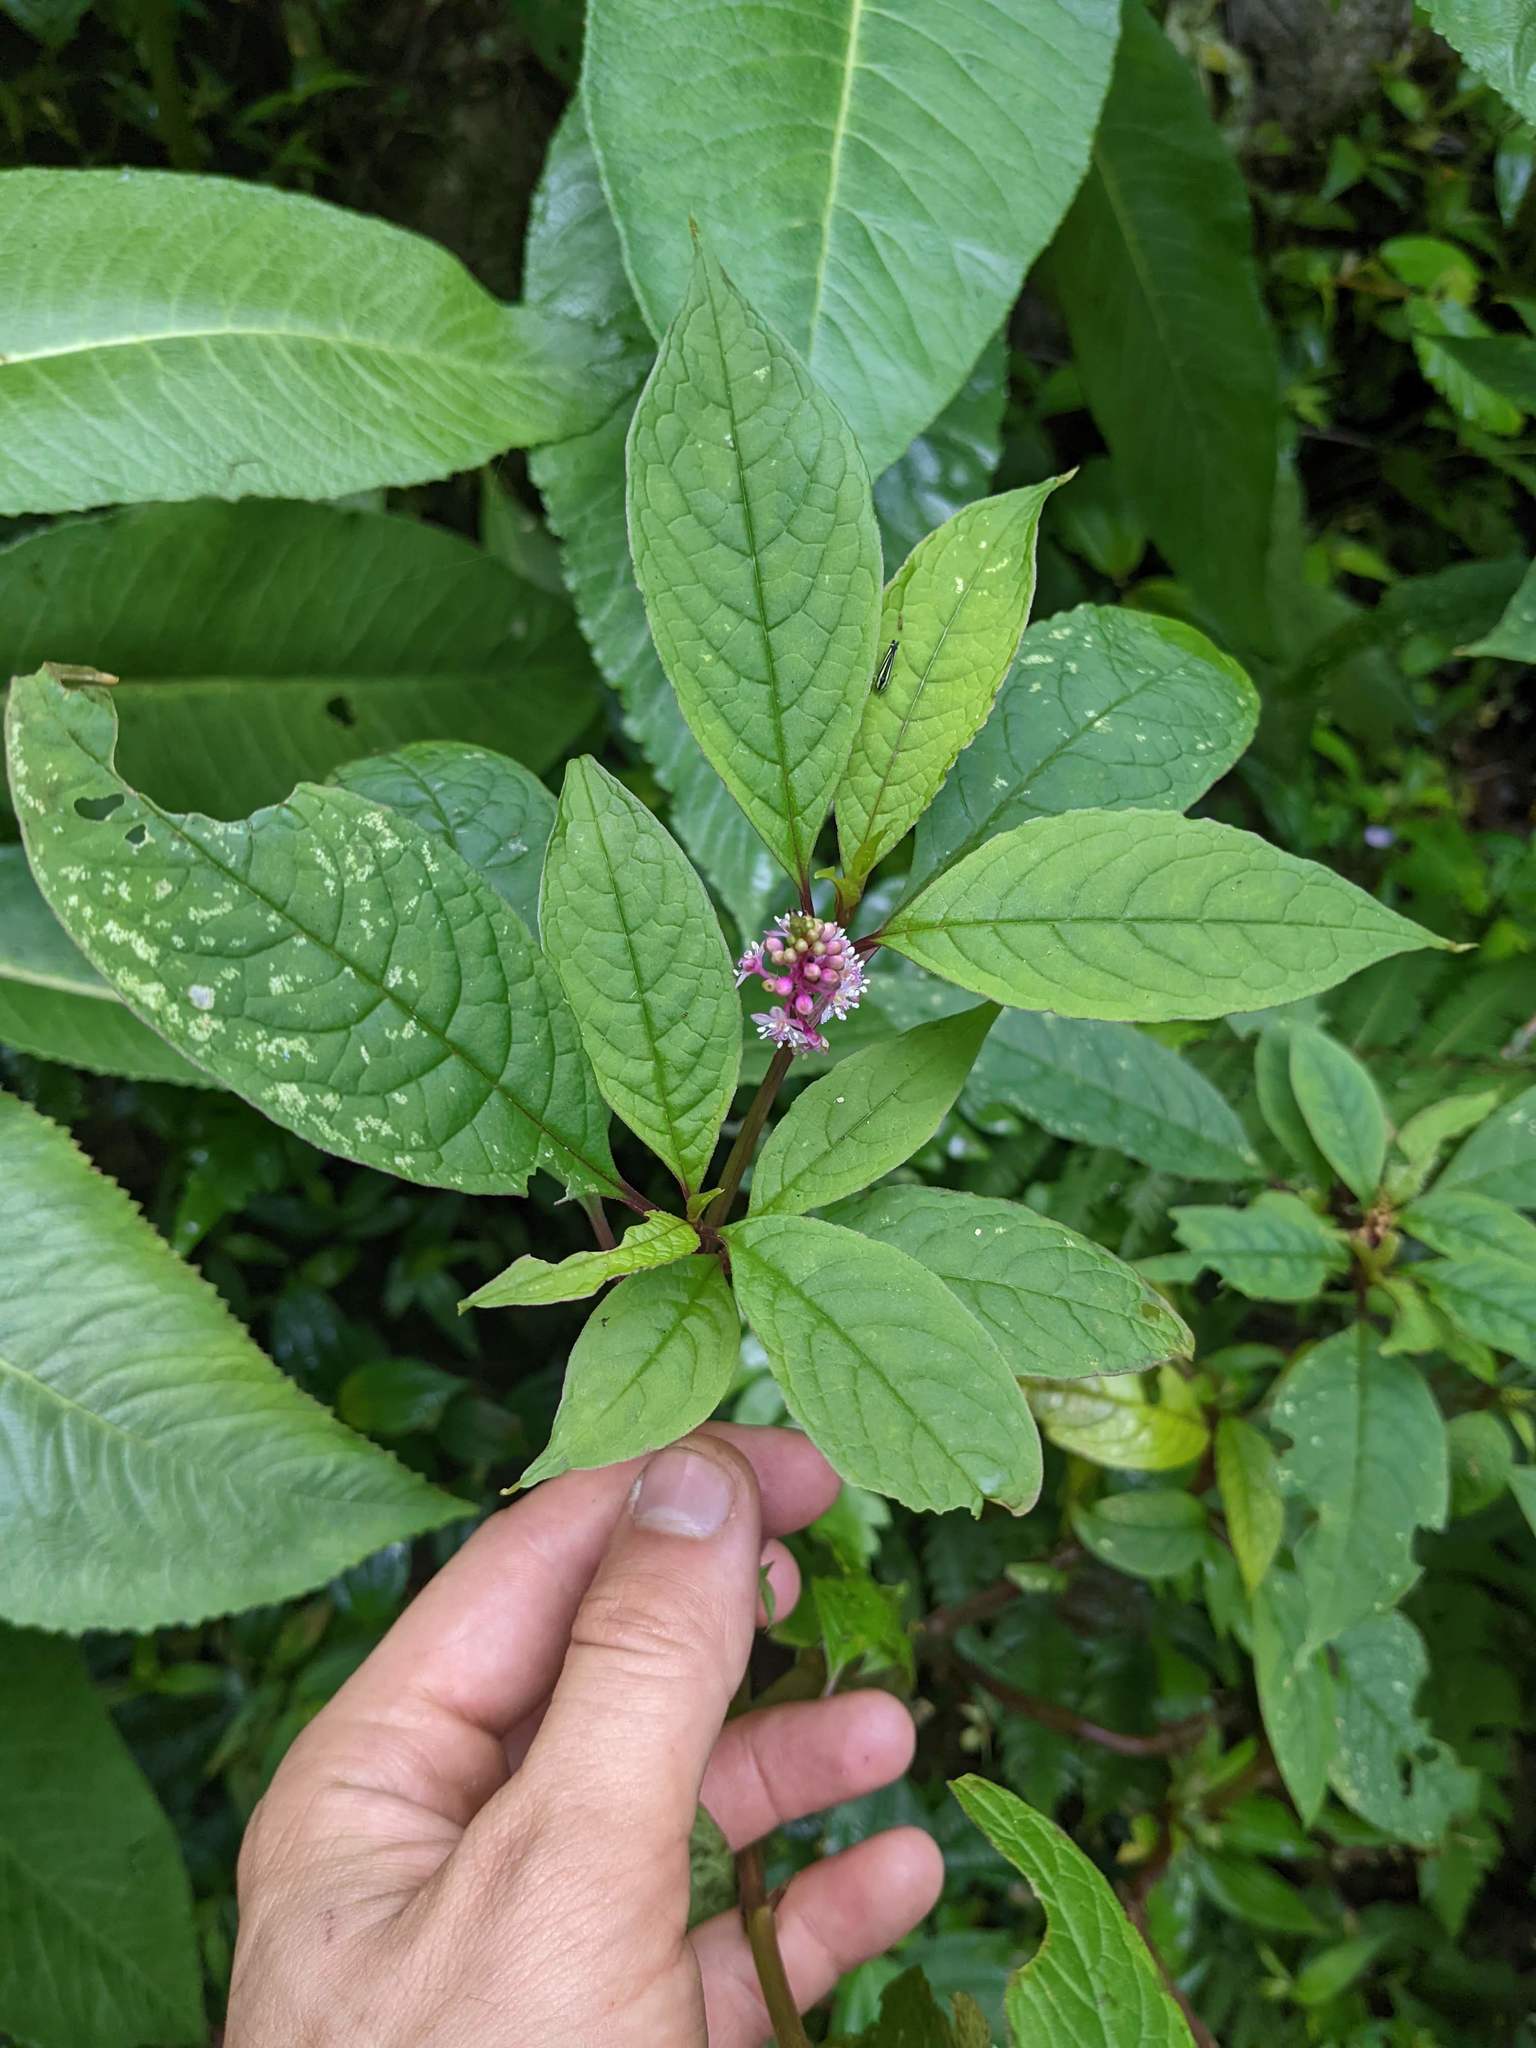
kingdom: Plantae
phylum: Tracheophyta
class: Magnoliopsida
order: Caryophyllales
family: Phytolaccaceae
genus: Phytolacca
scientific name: Phytolacca rugosa
